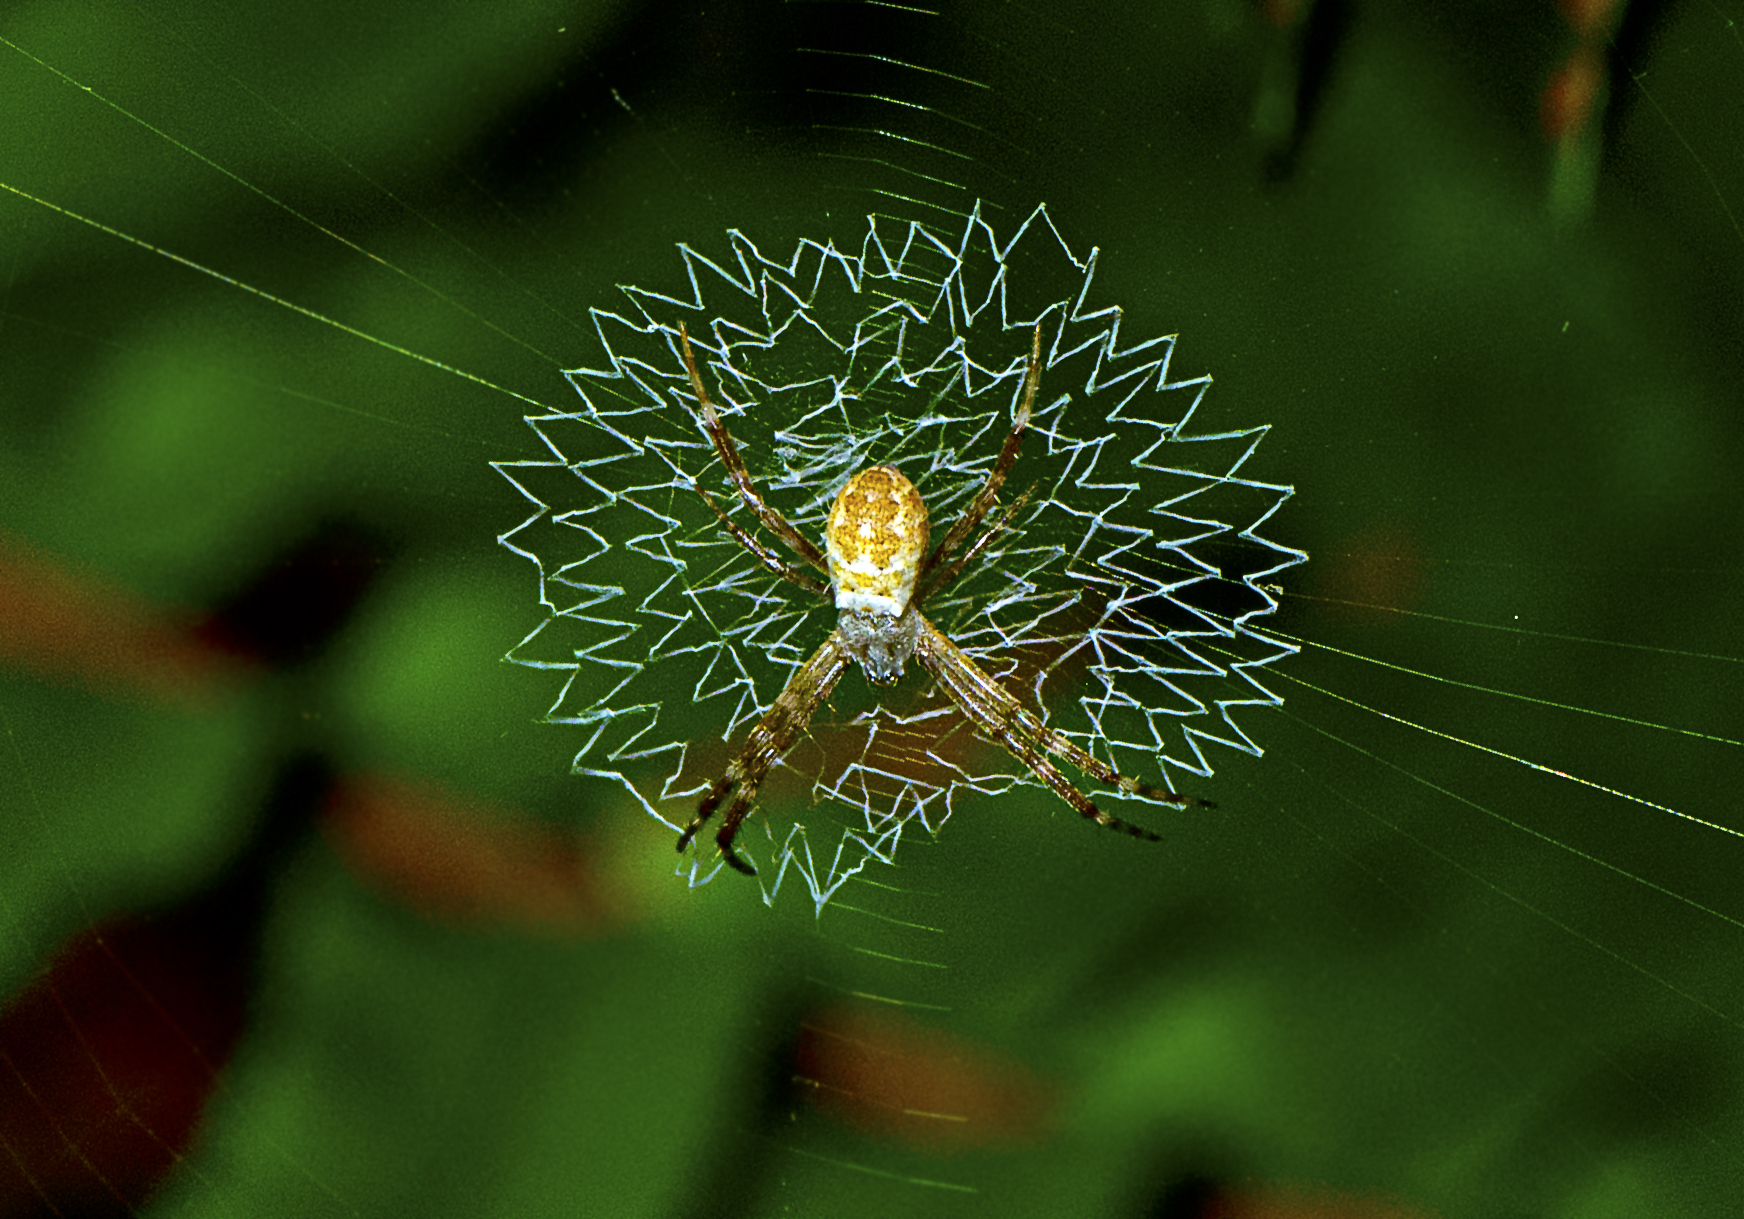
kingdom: Animalia
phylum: Arthropoda
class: Arachnida
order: Araneae
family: Araneidae
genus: Argiope
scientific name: Argiope keyserlingi
